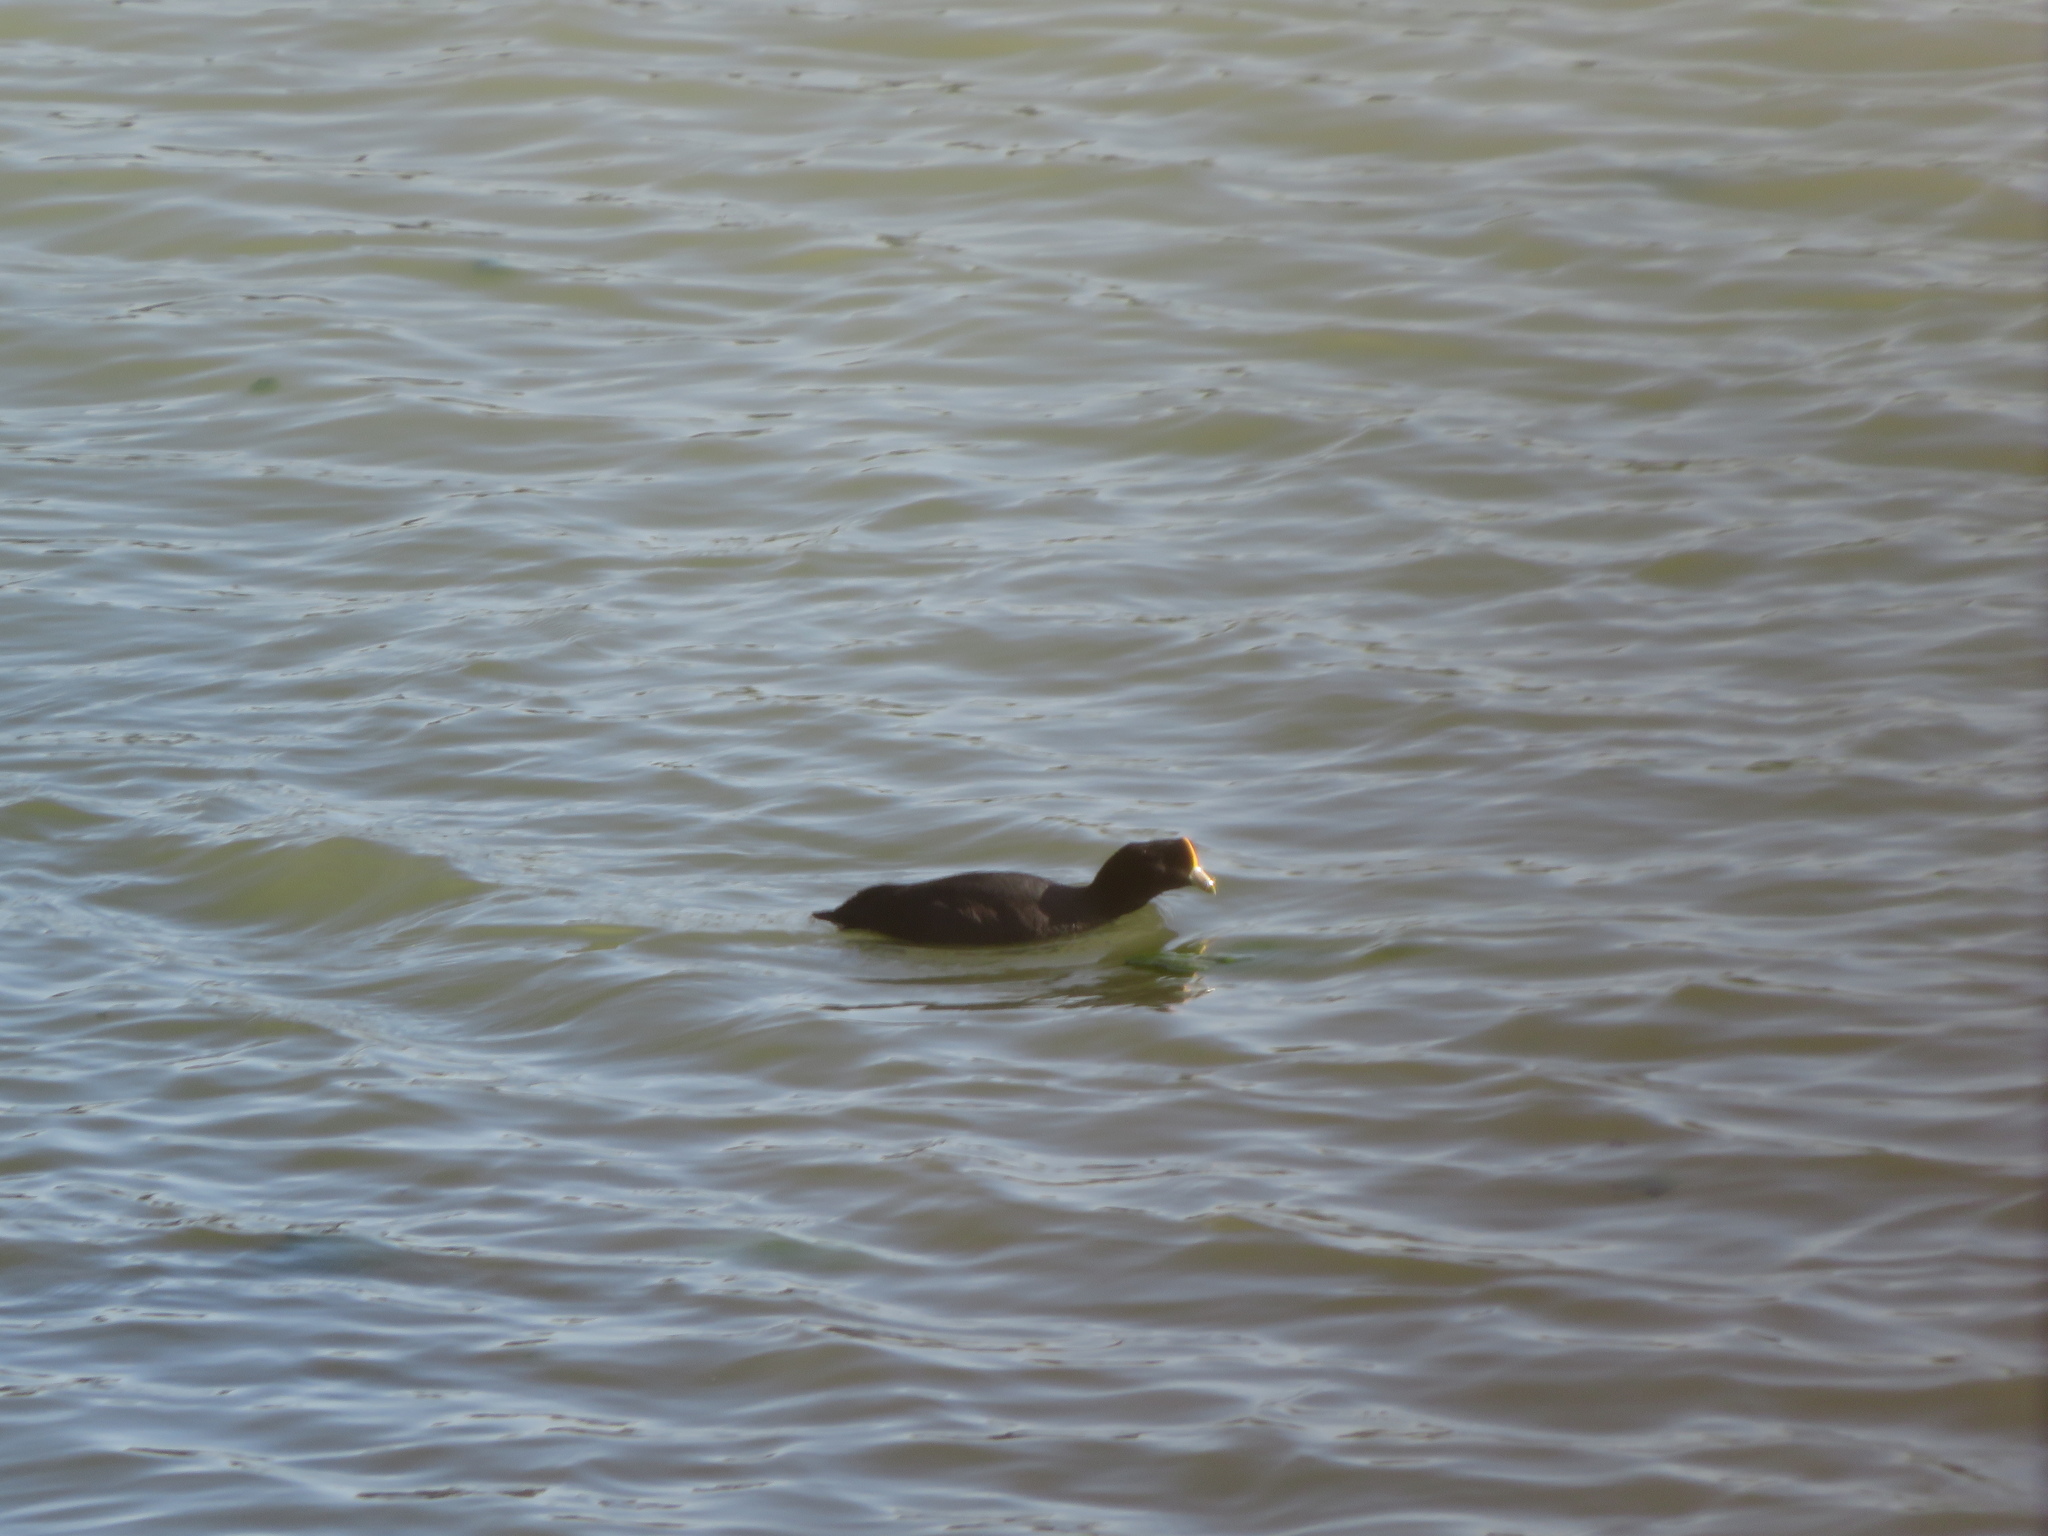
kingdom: Animalia
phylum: Chordata
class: Aves
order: Gruiformes
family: Rallidae
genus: Fulica
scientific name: Fulica leucoptera
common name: White-winged coot
